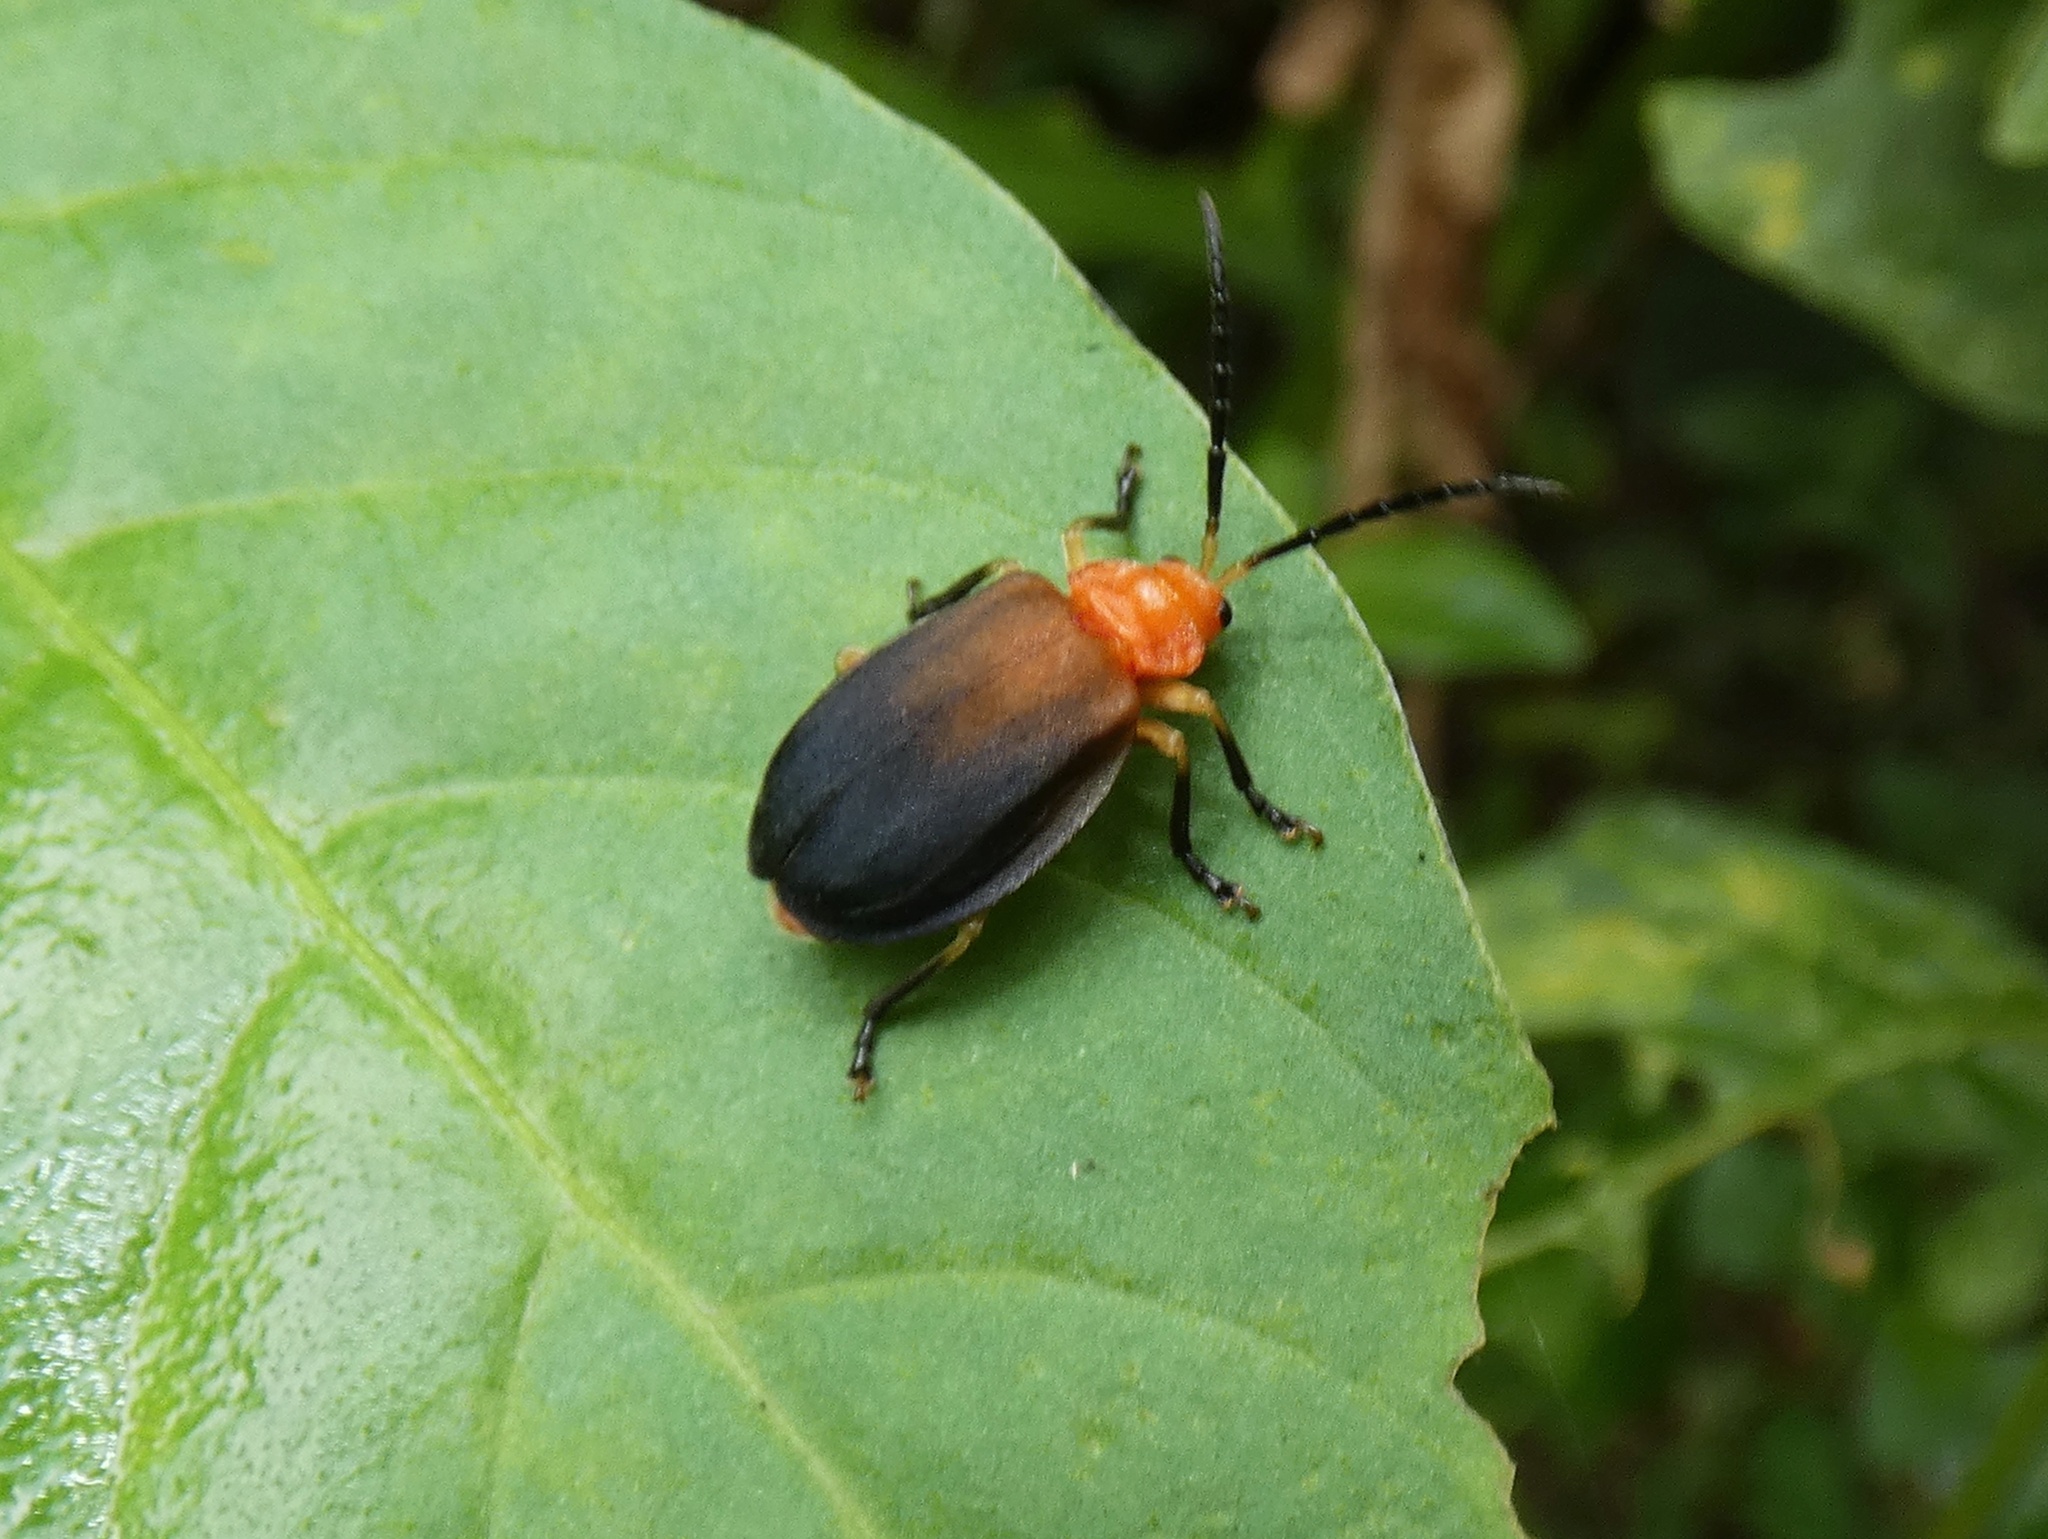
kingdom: Animalia
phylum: Arthropoda
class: Insecta
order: Coleoptera
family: Chrysomelidae
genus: Platycesta
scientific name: Platycesta
